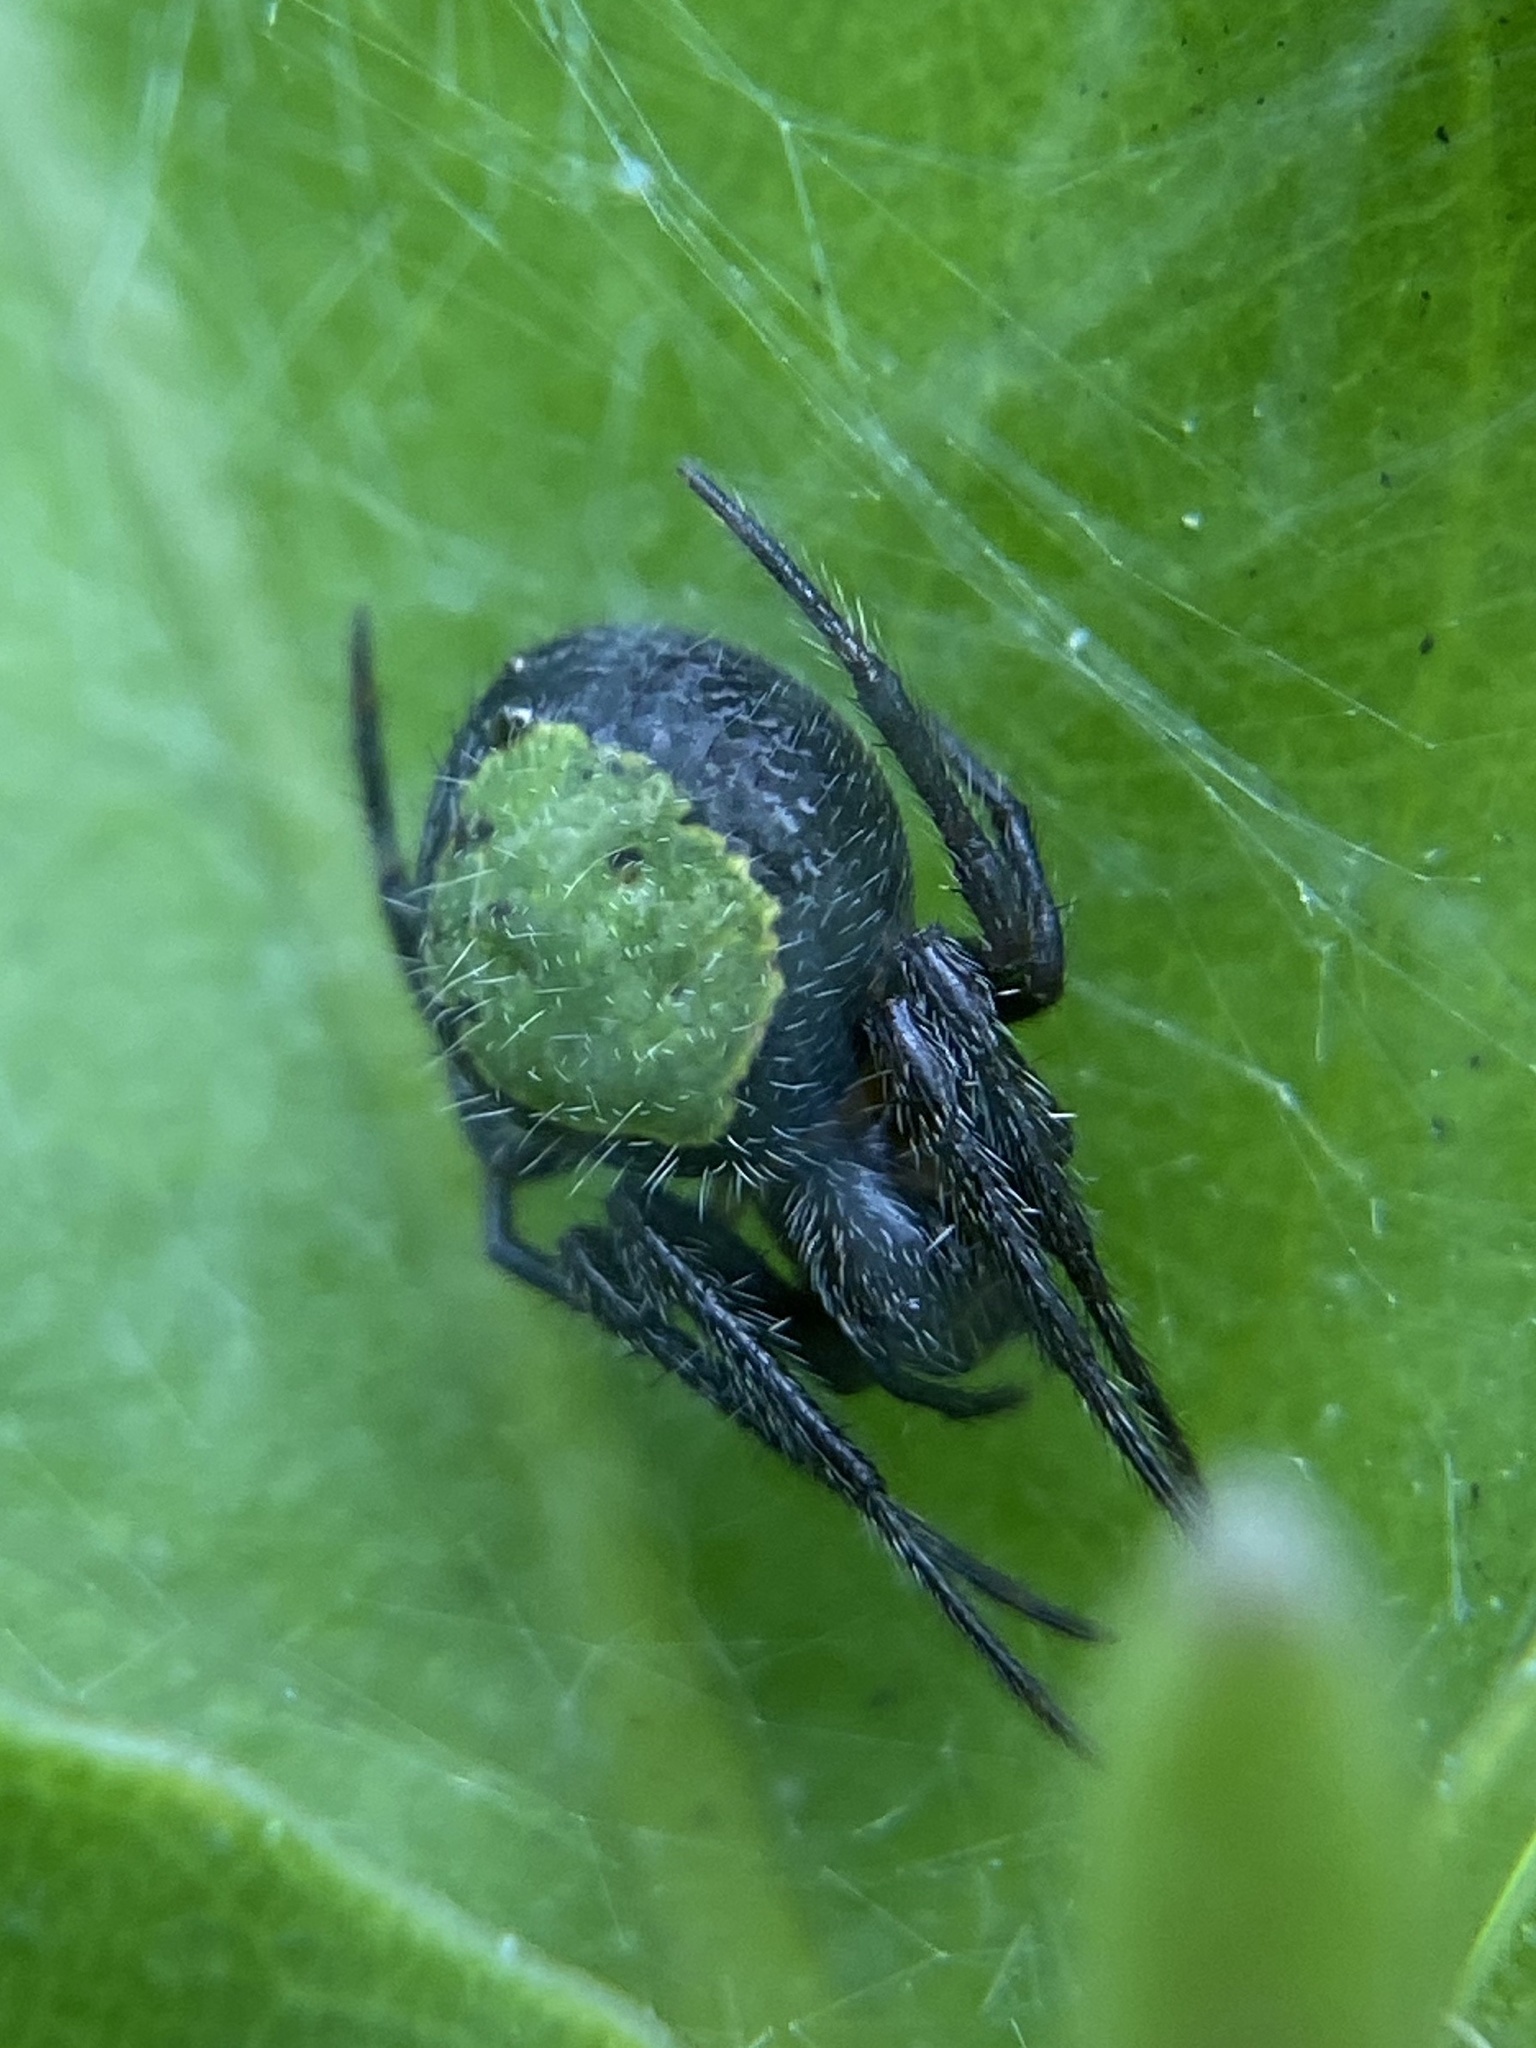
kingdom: Animalia
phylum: Arthropoda
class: Arachnida
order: Araneae
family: Araneidae
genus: Eriophora
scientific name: Eriophora ravilla
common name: Orb weavers
